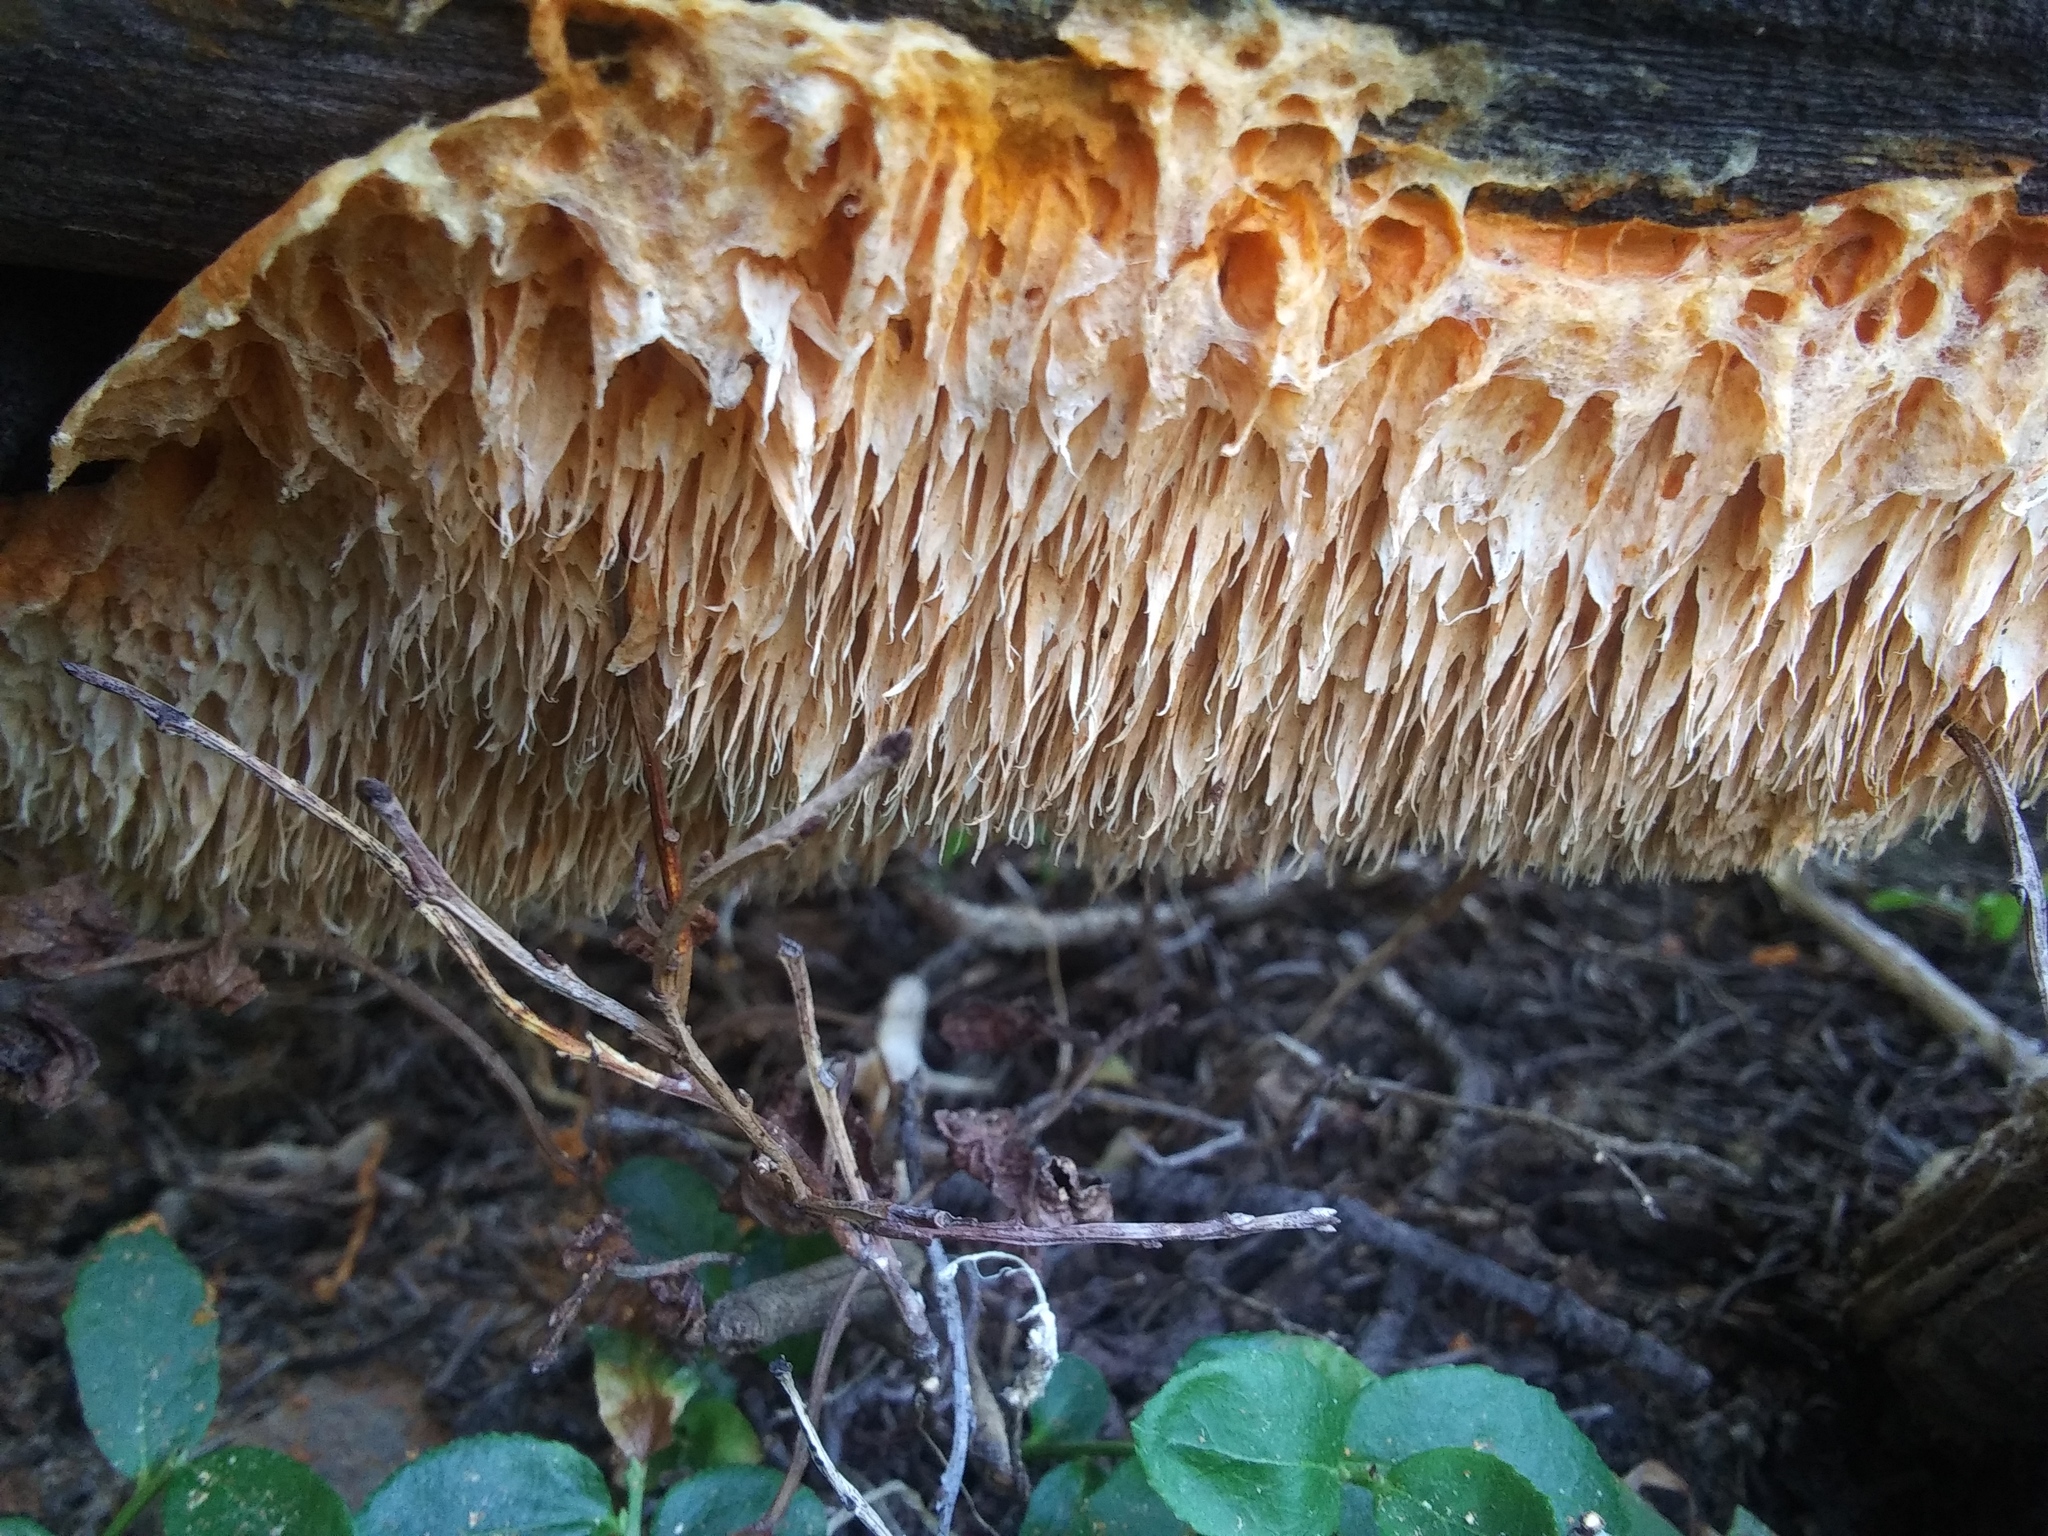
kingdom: Fungi
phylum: Basidiomycota
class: Agaricomycetes
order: Polyporales
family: Pycnoporellaceae
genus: Pycnoporellus
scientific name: Pycnoporellus alboluteus
